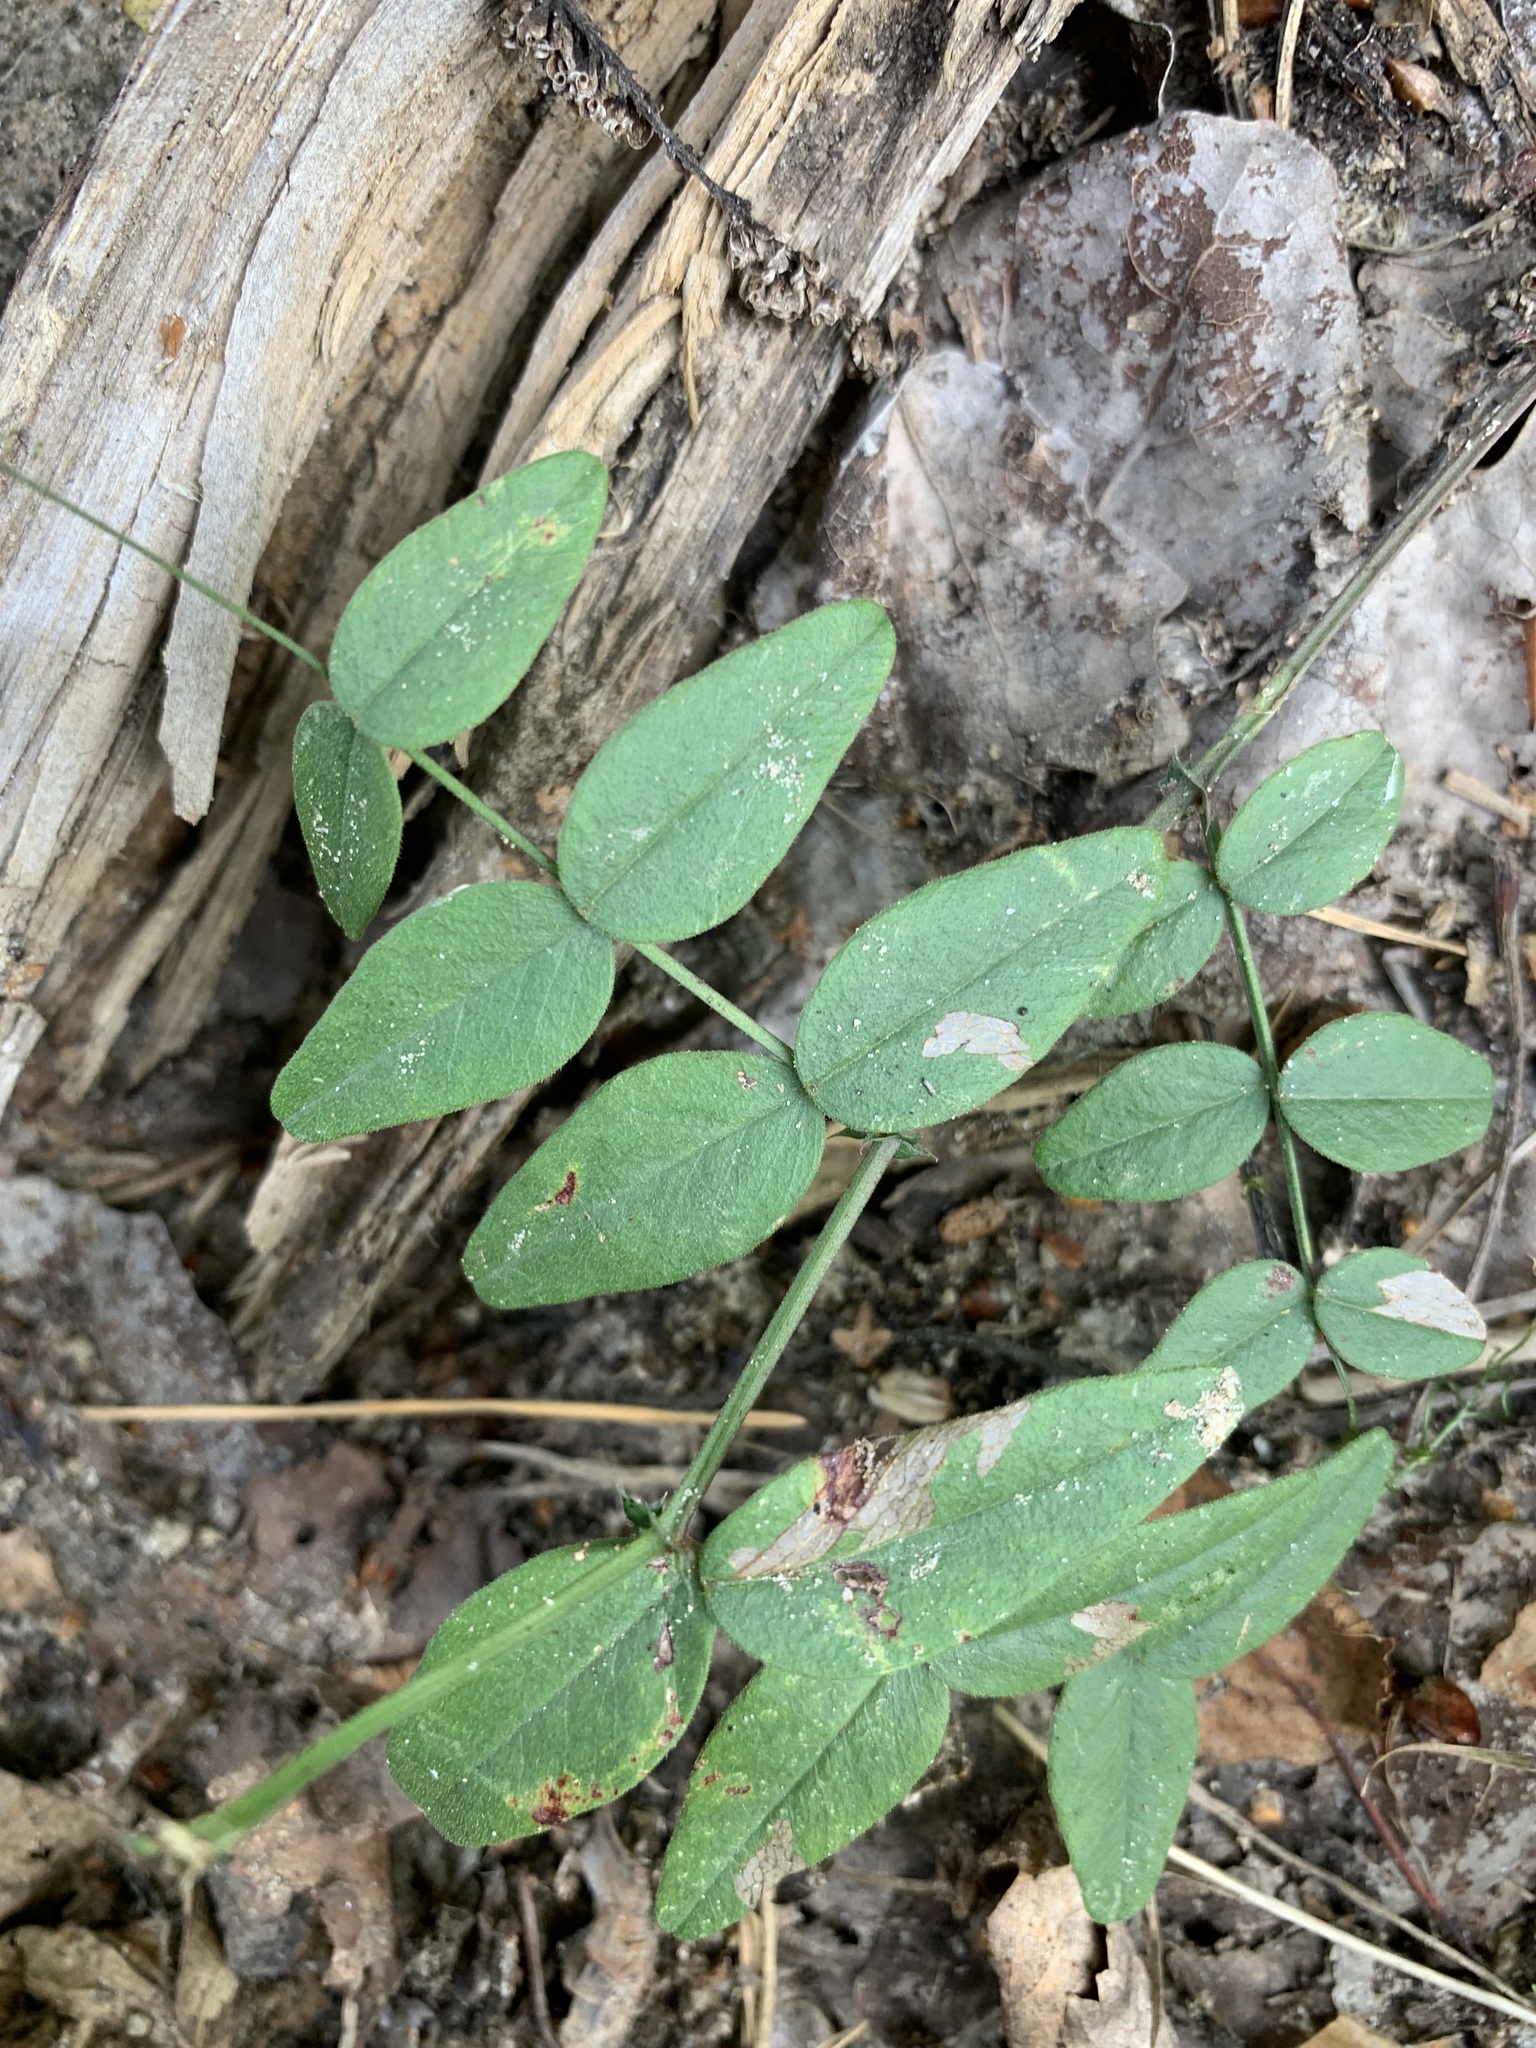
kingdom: Plantae
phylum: Tracheophyta
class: Magnoliopsida
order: Fabales
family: Fabaceae
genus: Vicia
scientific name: Vicia sepium
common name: Bush vetch
